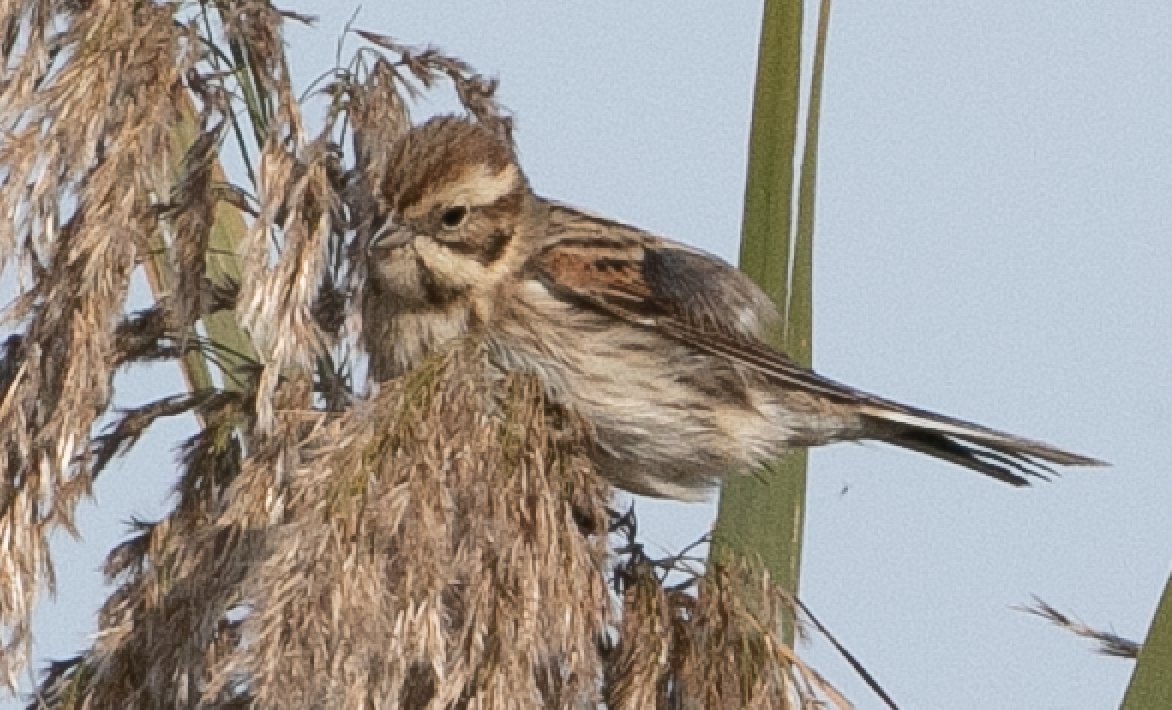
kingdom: Animalia
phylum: Chordata
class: Aves
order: Passeriformes
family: Emberizidae
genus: Emberiza
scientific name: Emberiza schoeniclus
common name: Reed bunting
